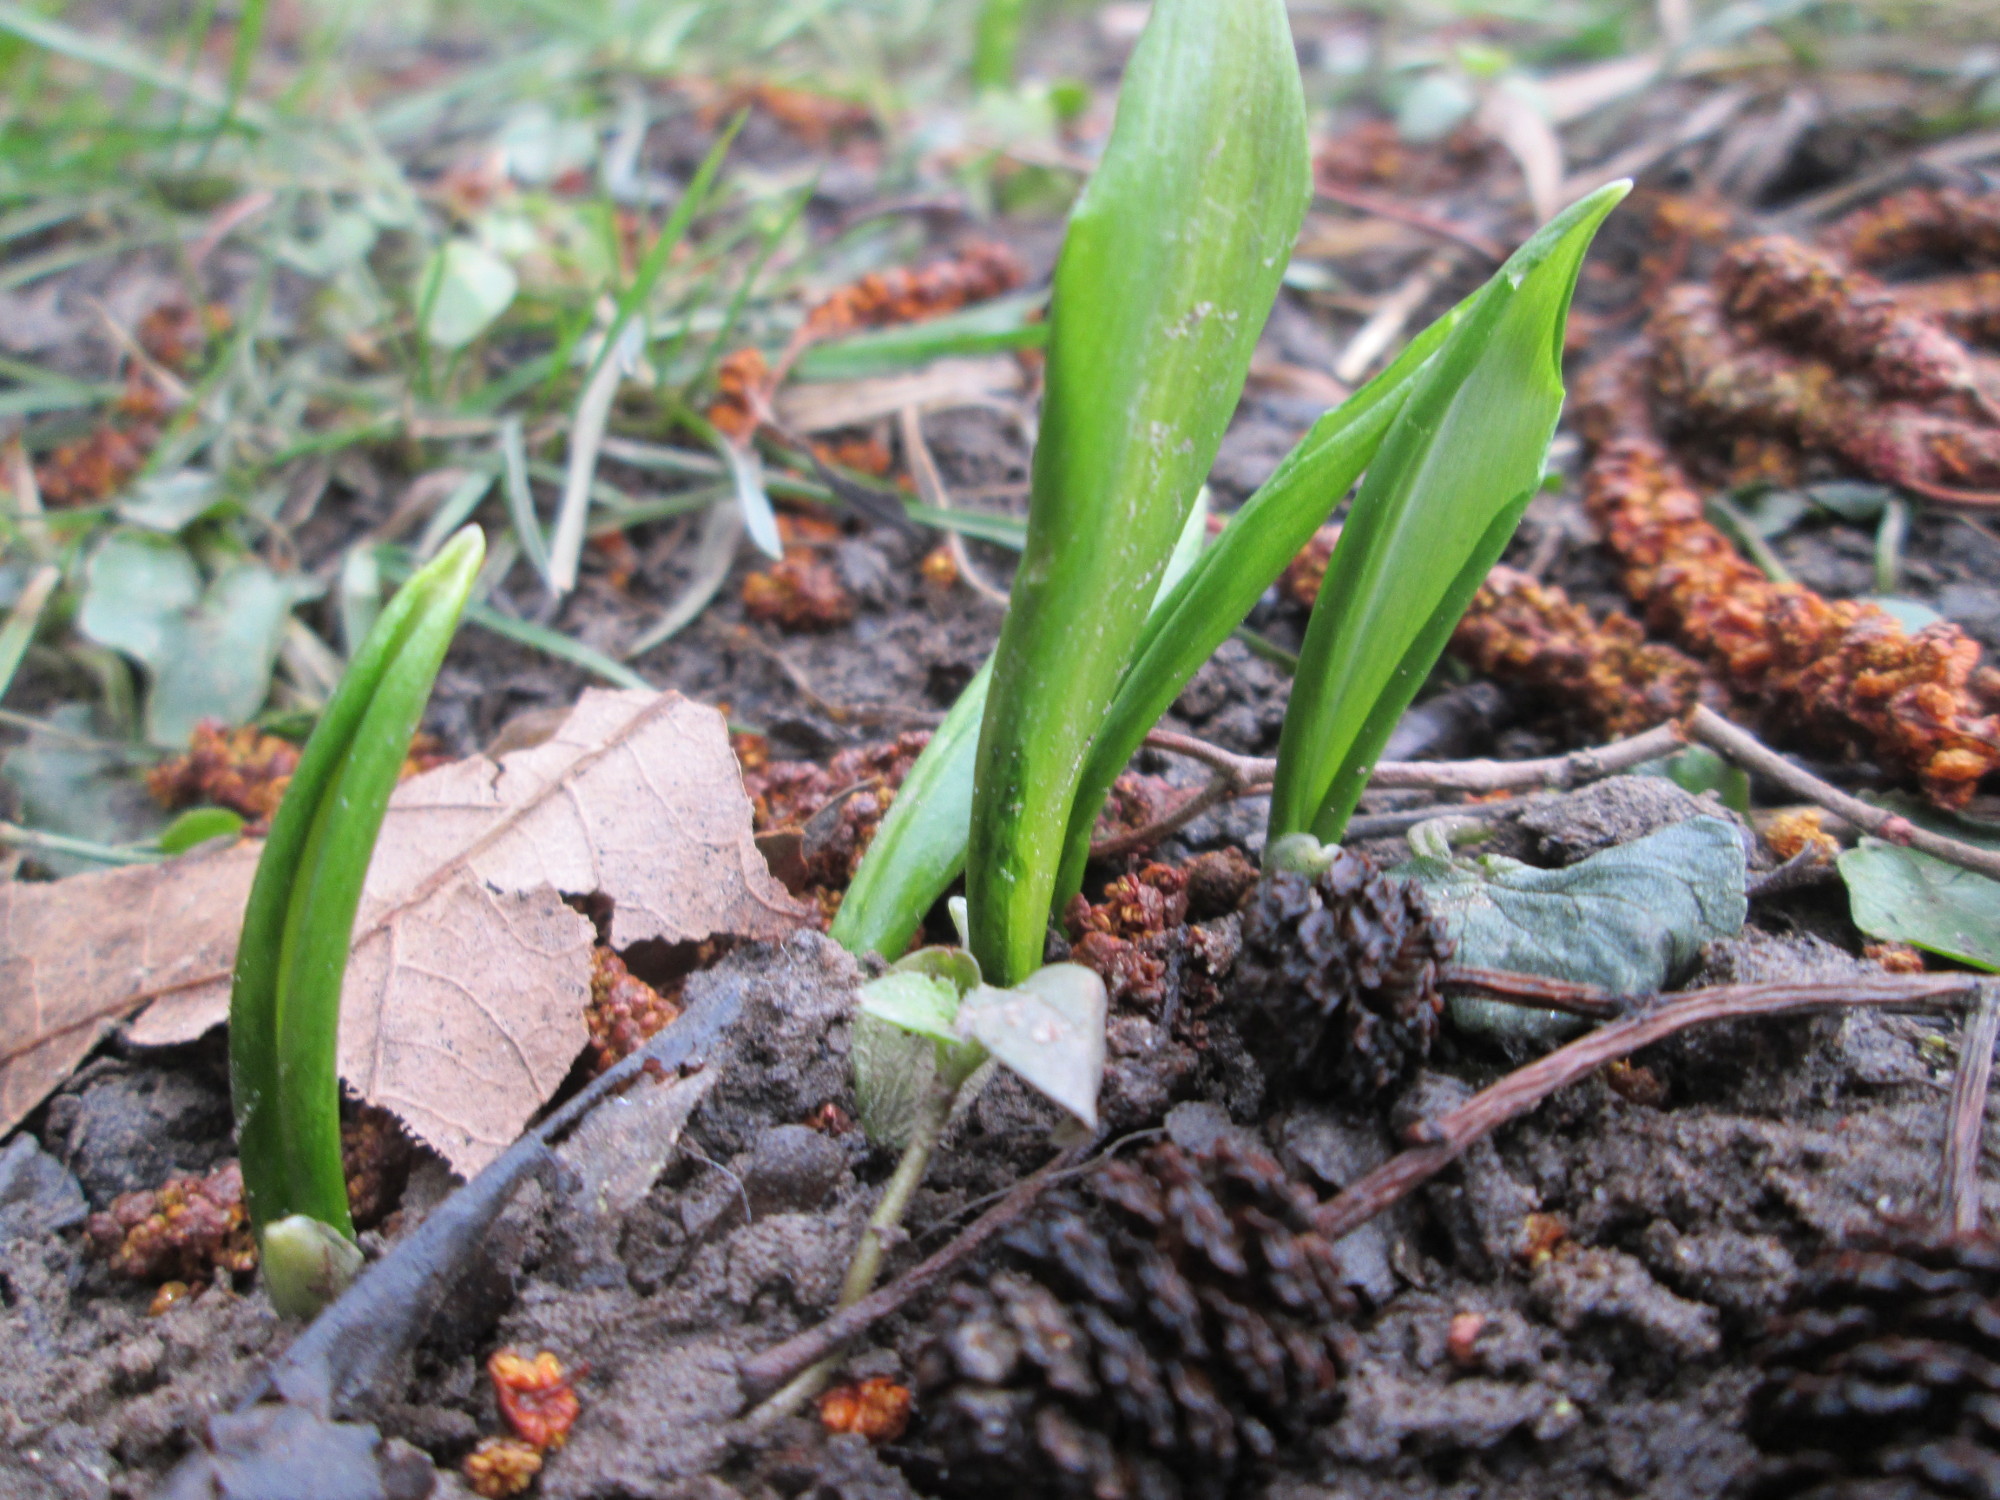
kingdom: Plantae
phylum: Tracheophyta
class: Liliopsida
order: Asparagales
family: Amaryllidaceae
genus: Allium
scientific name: Allium ursinum
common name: Ramsons
